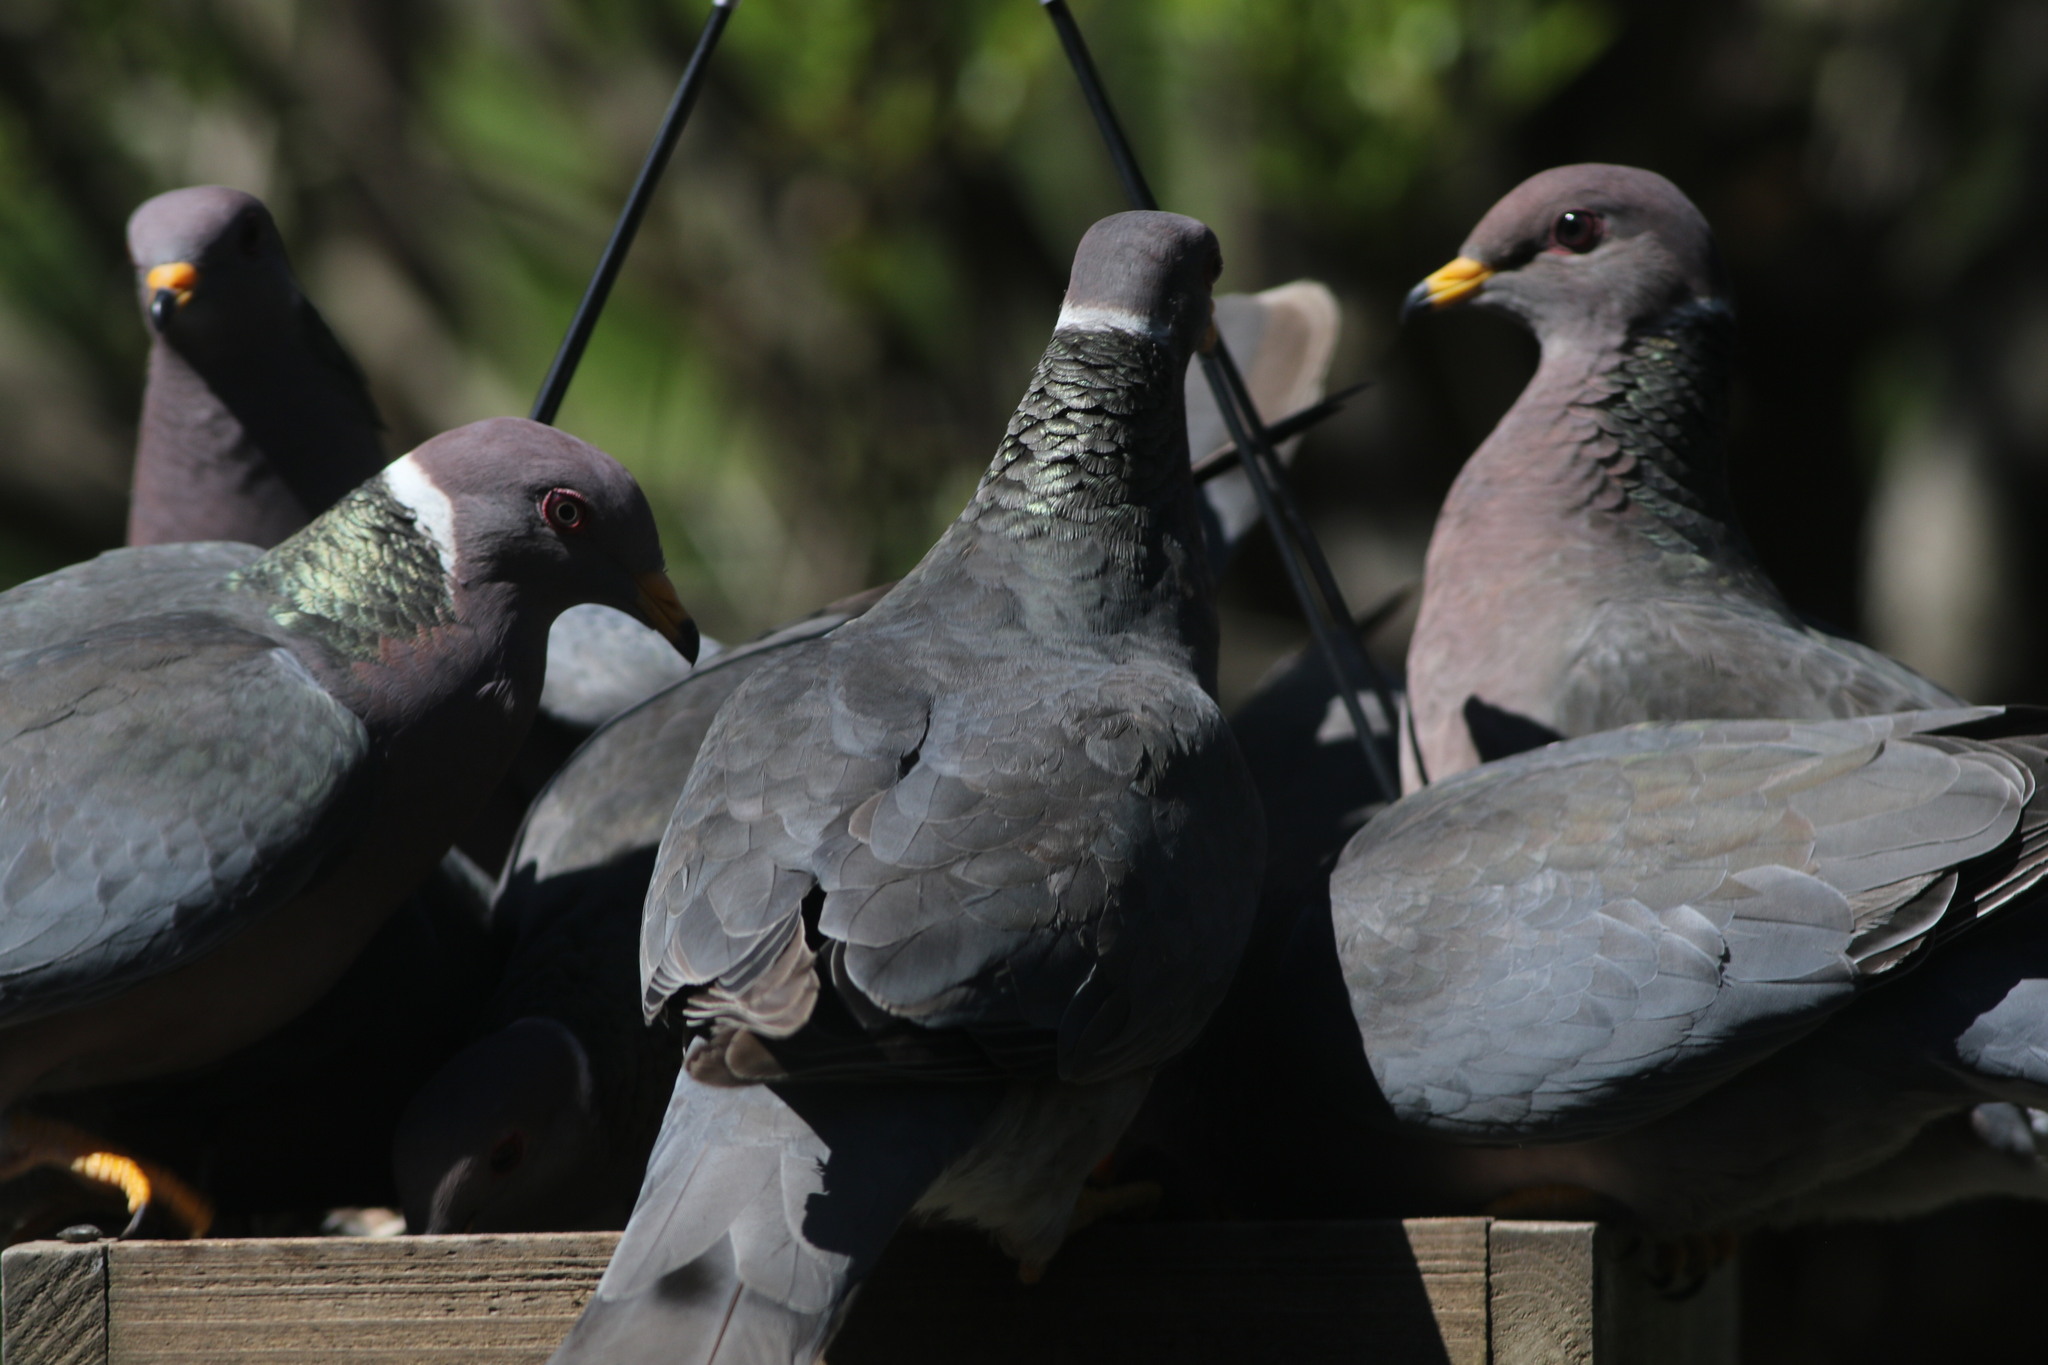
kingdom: Animalia
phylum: Chordata
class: Aves
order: Columbiformes
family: Columbidae
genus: Patagioenas
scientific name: Patagioenas fasciata
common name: Band-tailed pigeon
